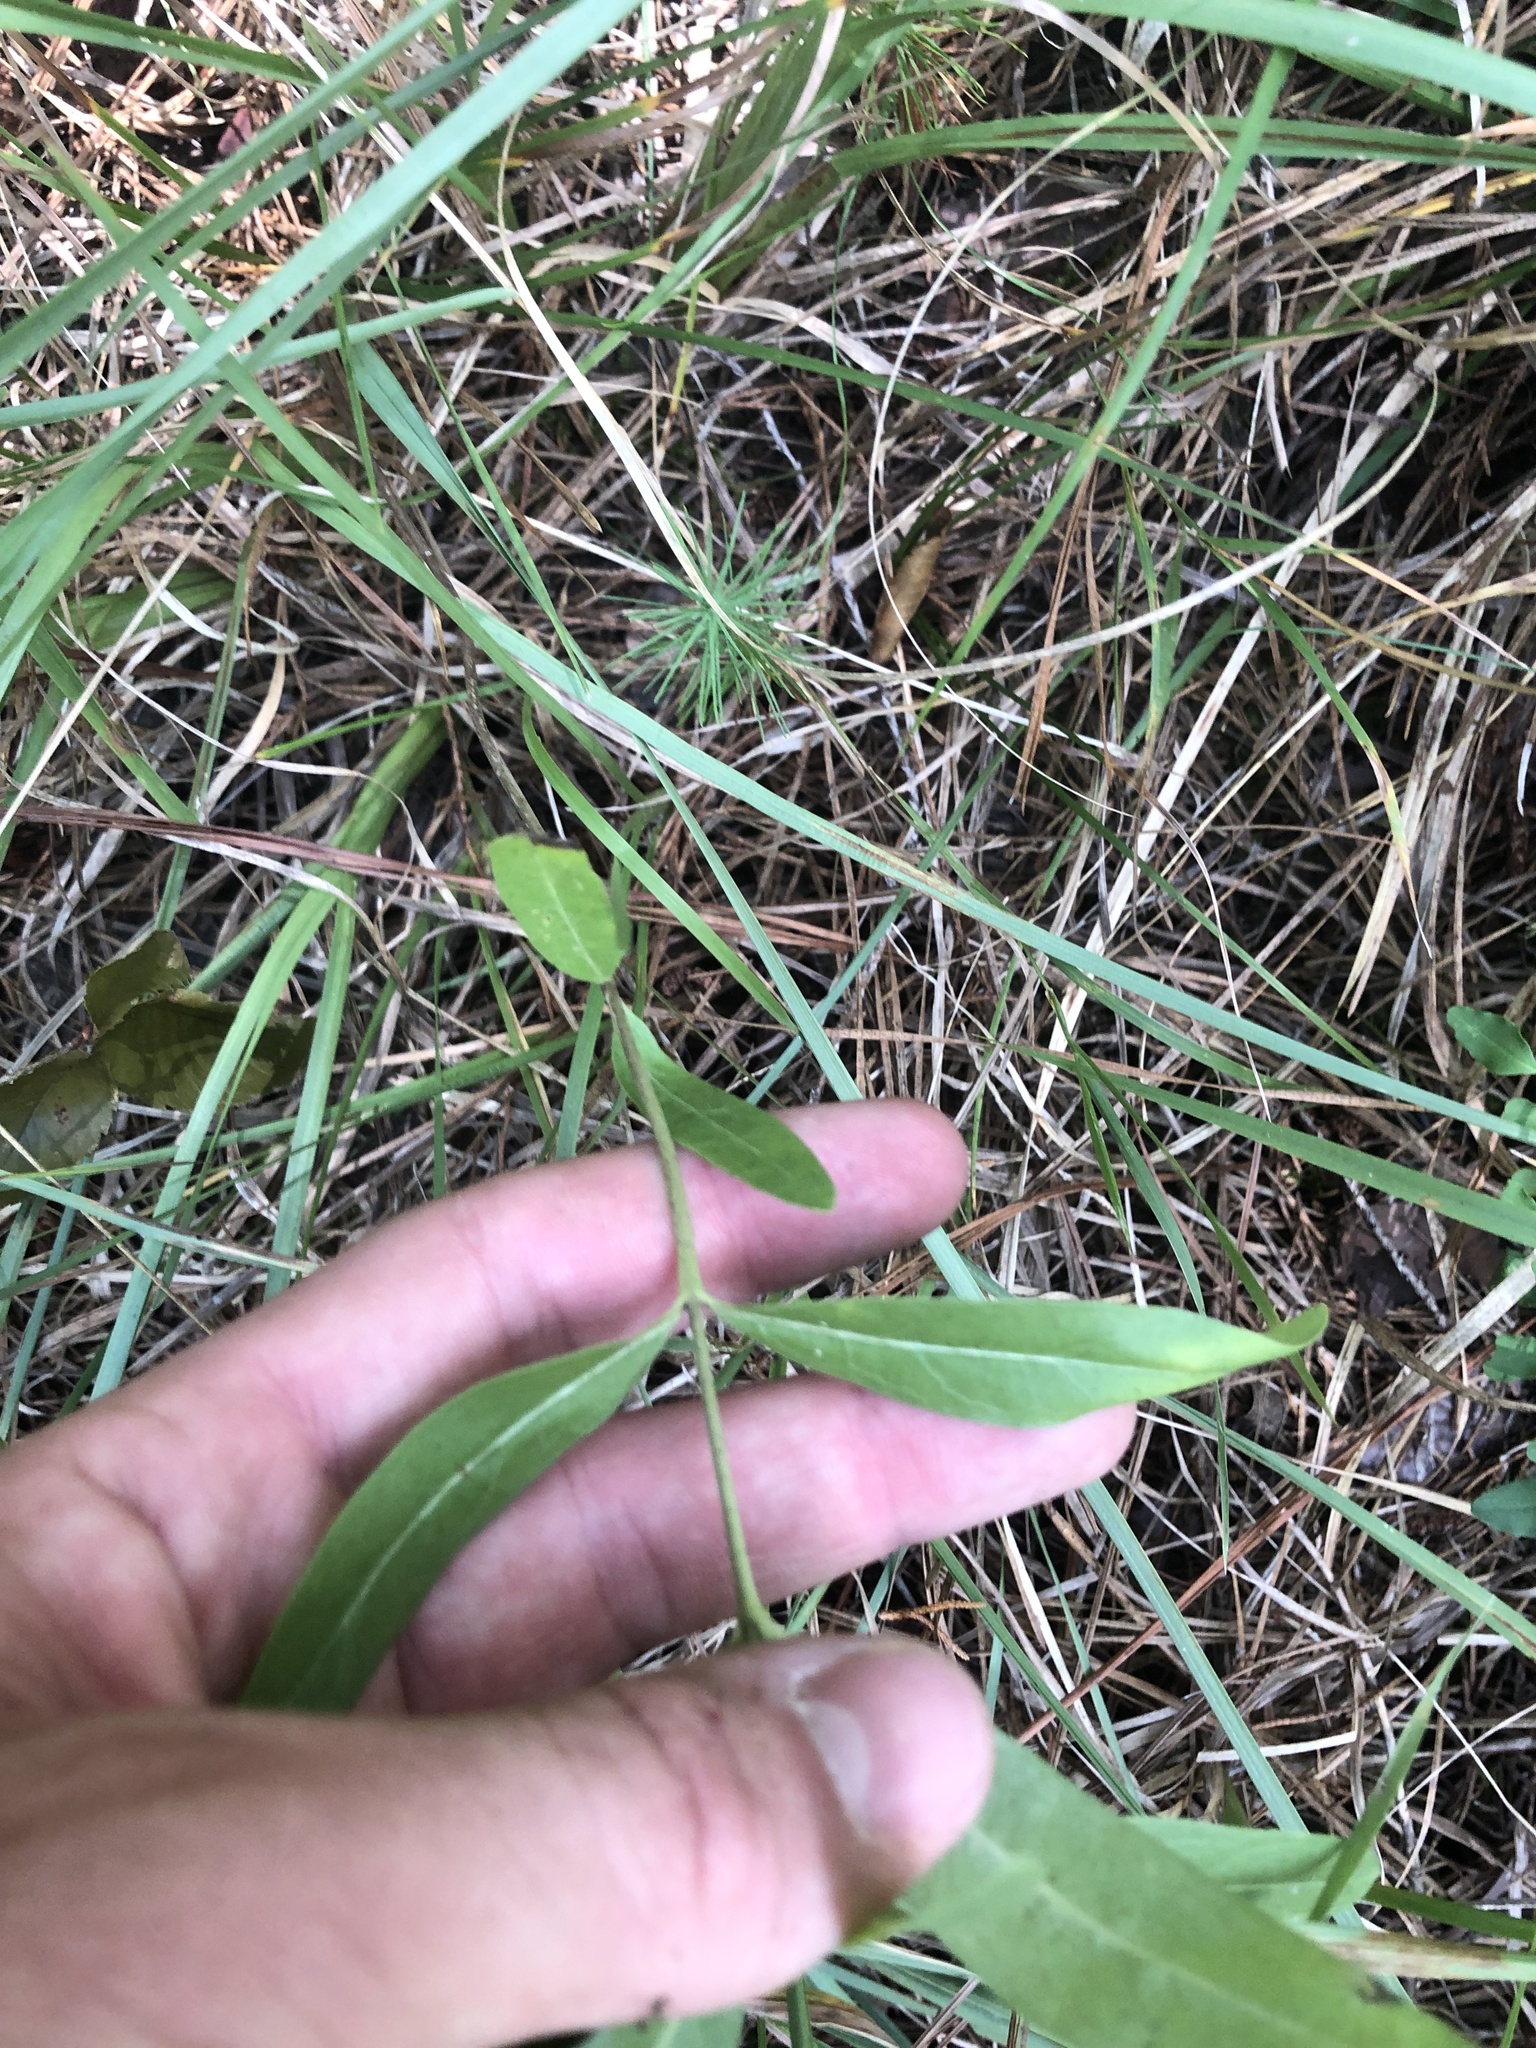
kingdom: Plantae
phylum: Tracheophyta
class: Magnoliopsida
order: Gentianales
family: Apocynaceae
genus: Asclepias
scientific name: Asclepias viridiflora
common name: Green comet milkweed
